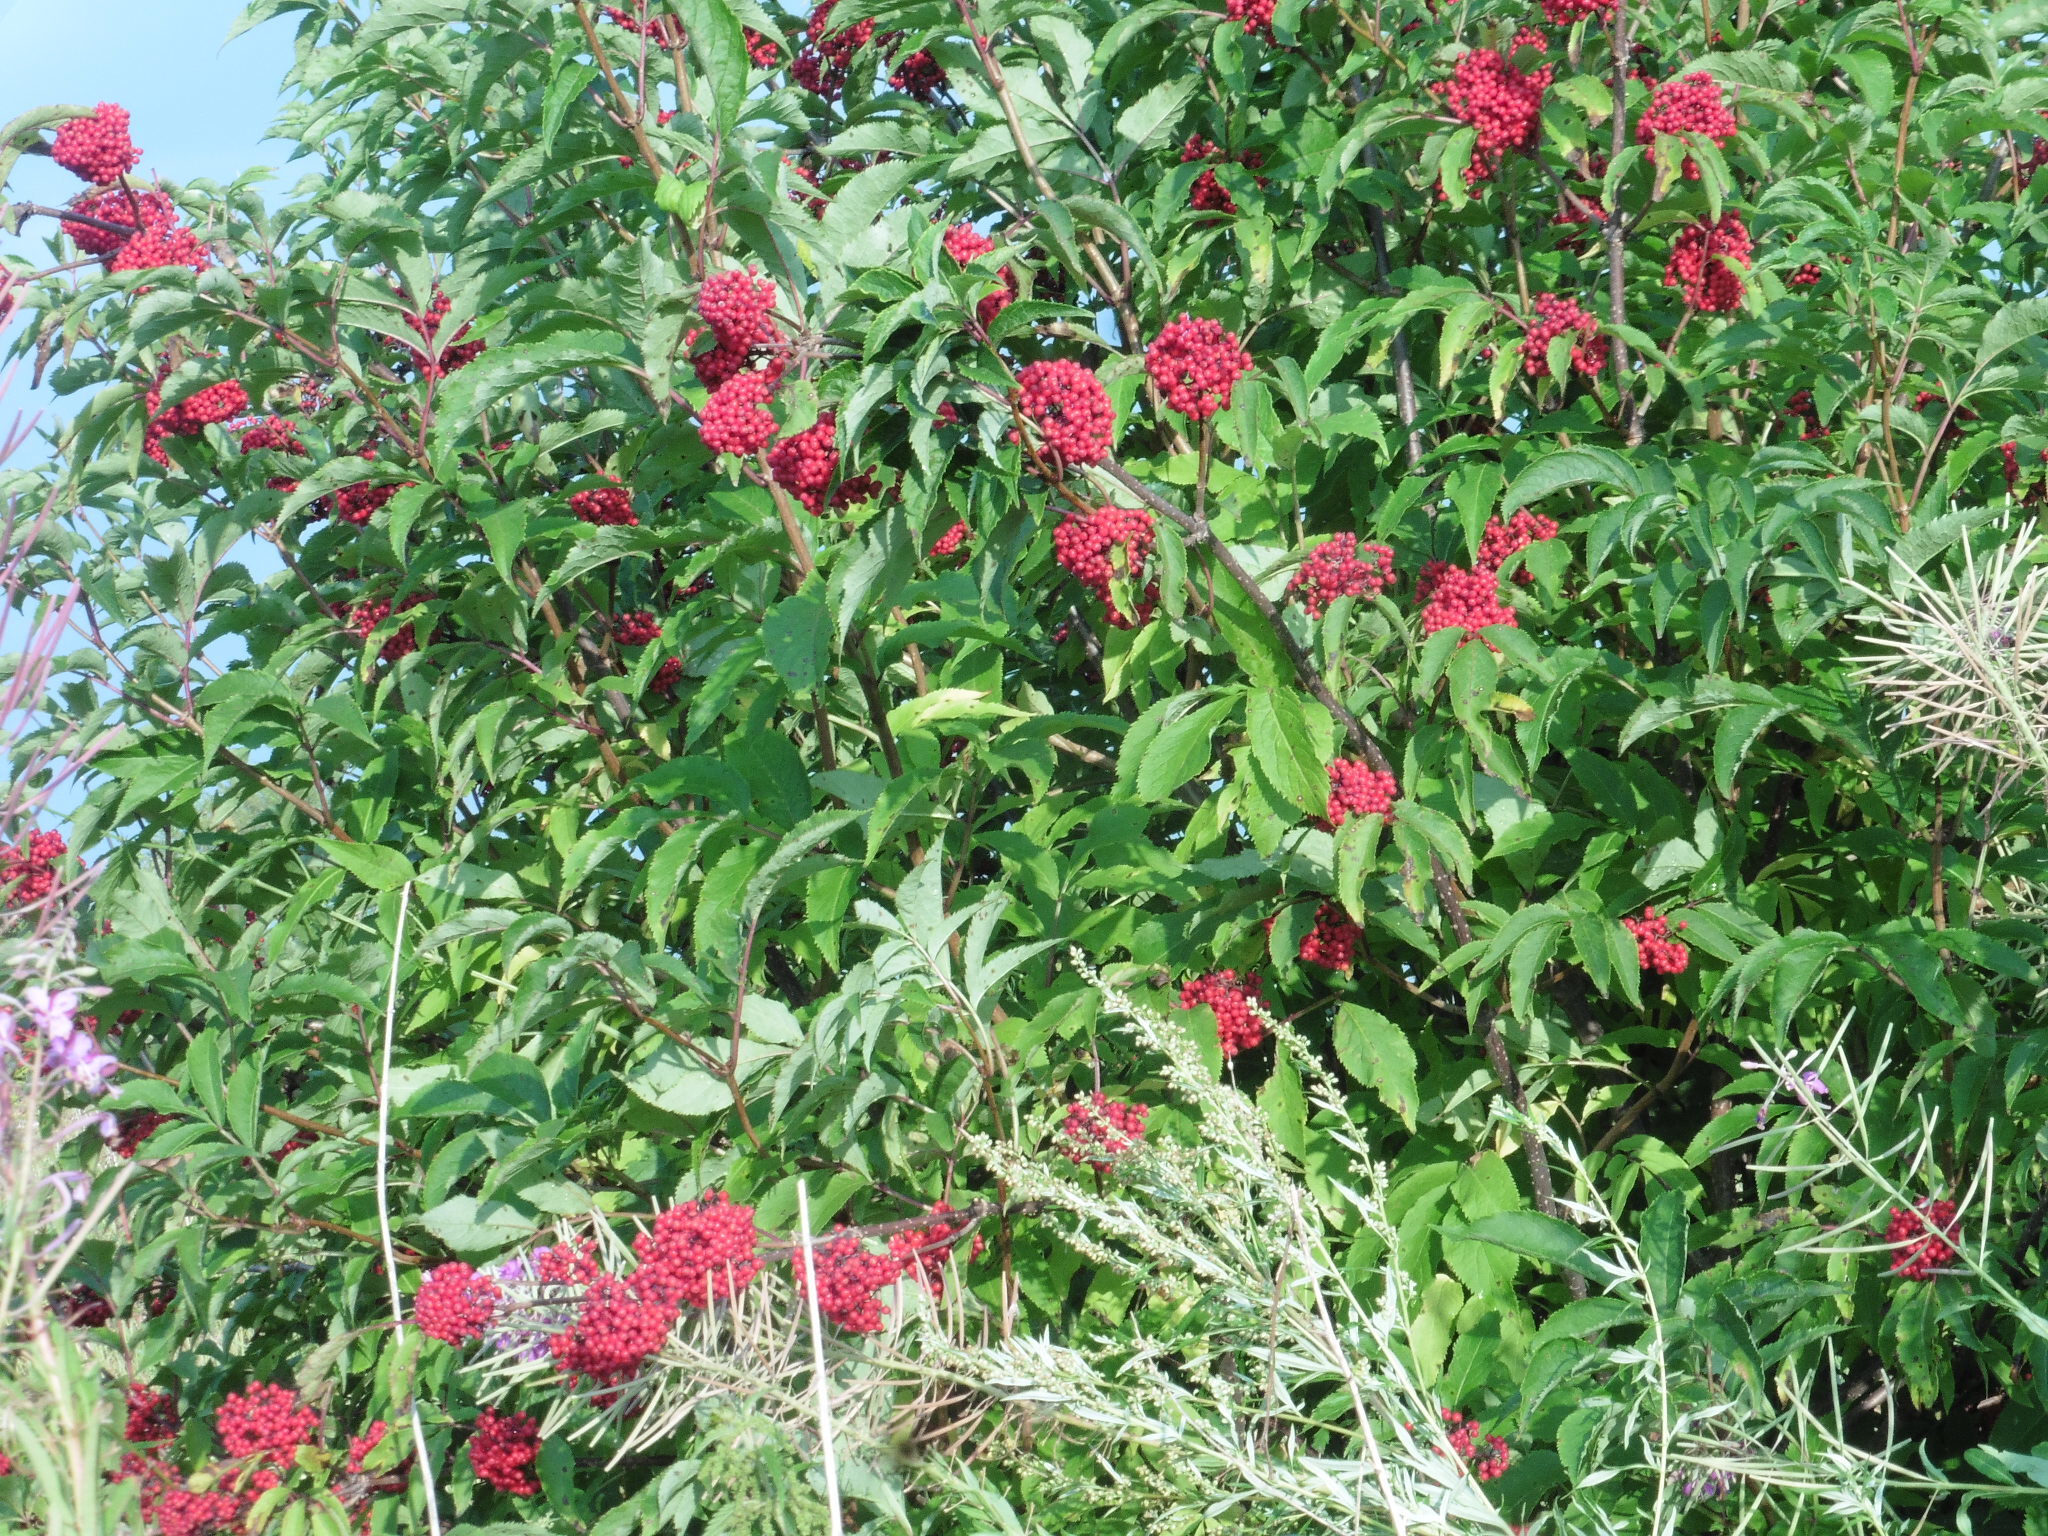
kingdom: Plantae
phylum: Tracheophyta
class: Magnoliopsida
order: Dipsacales
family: Viburnaceae
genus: Sambucus
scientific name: Sambucus racemosa
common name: Red-berried elder
